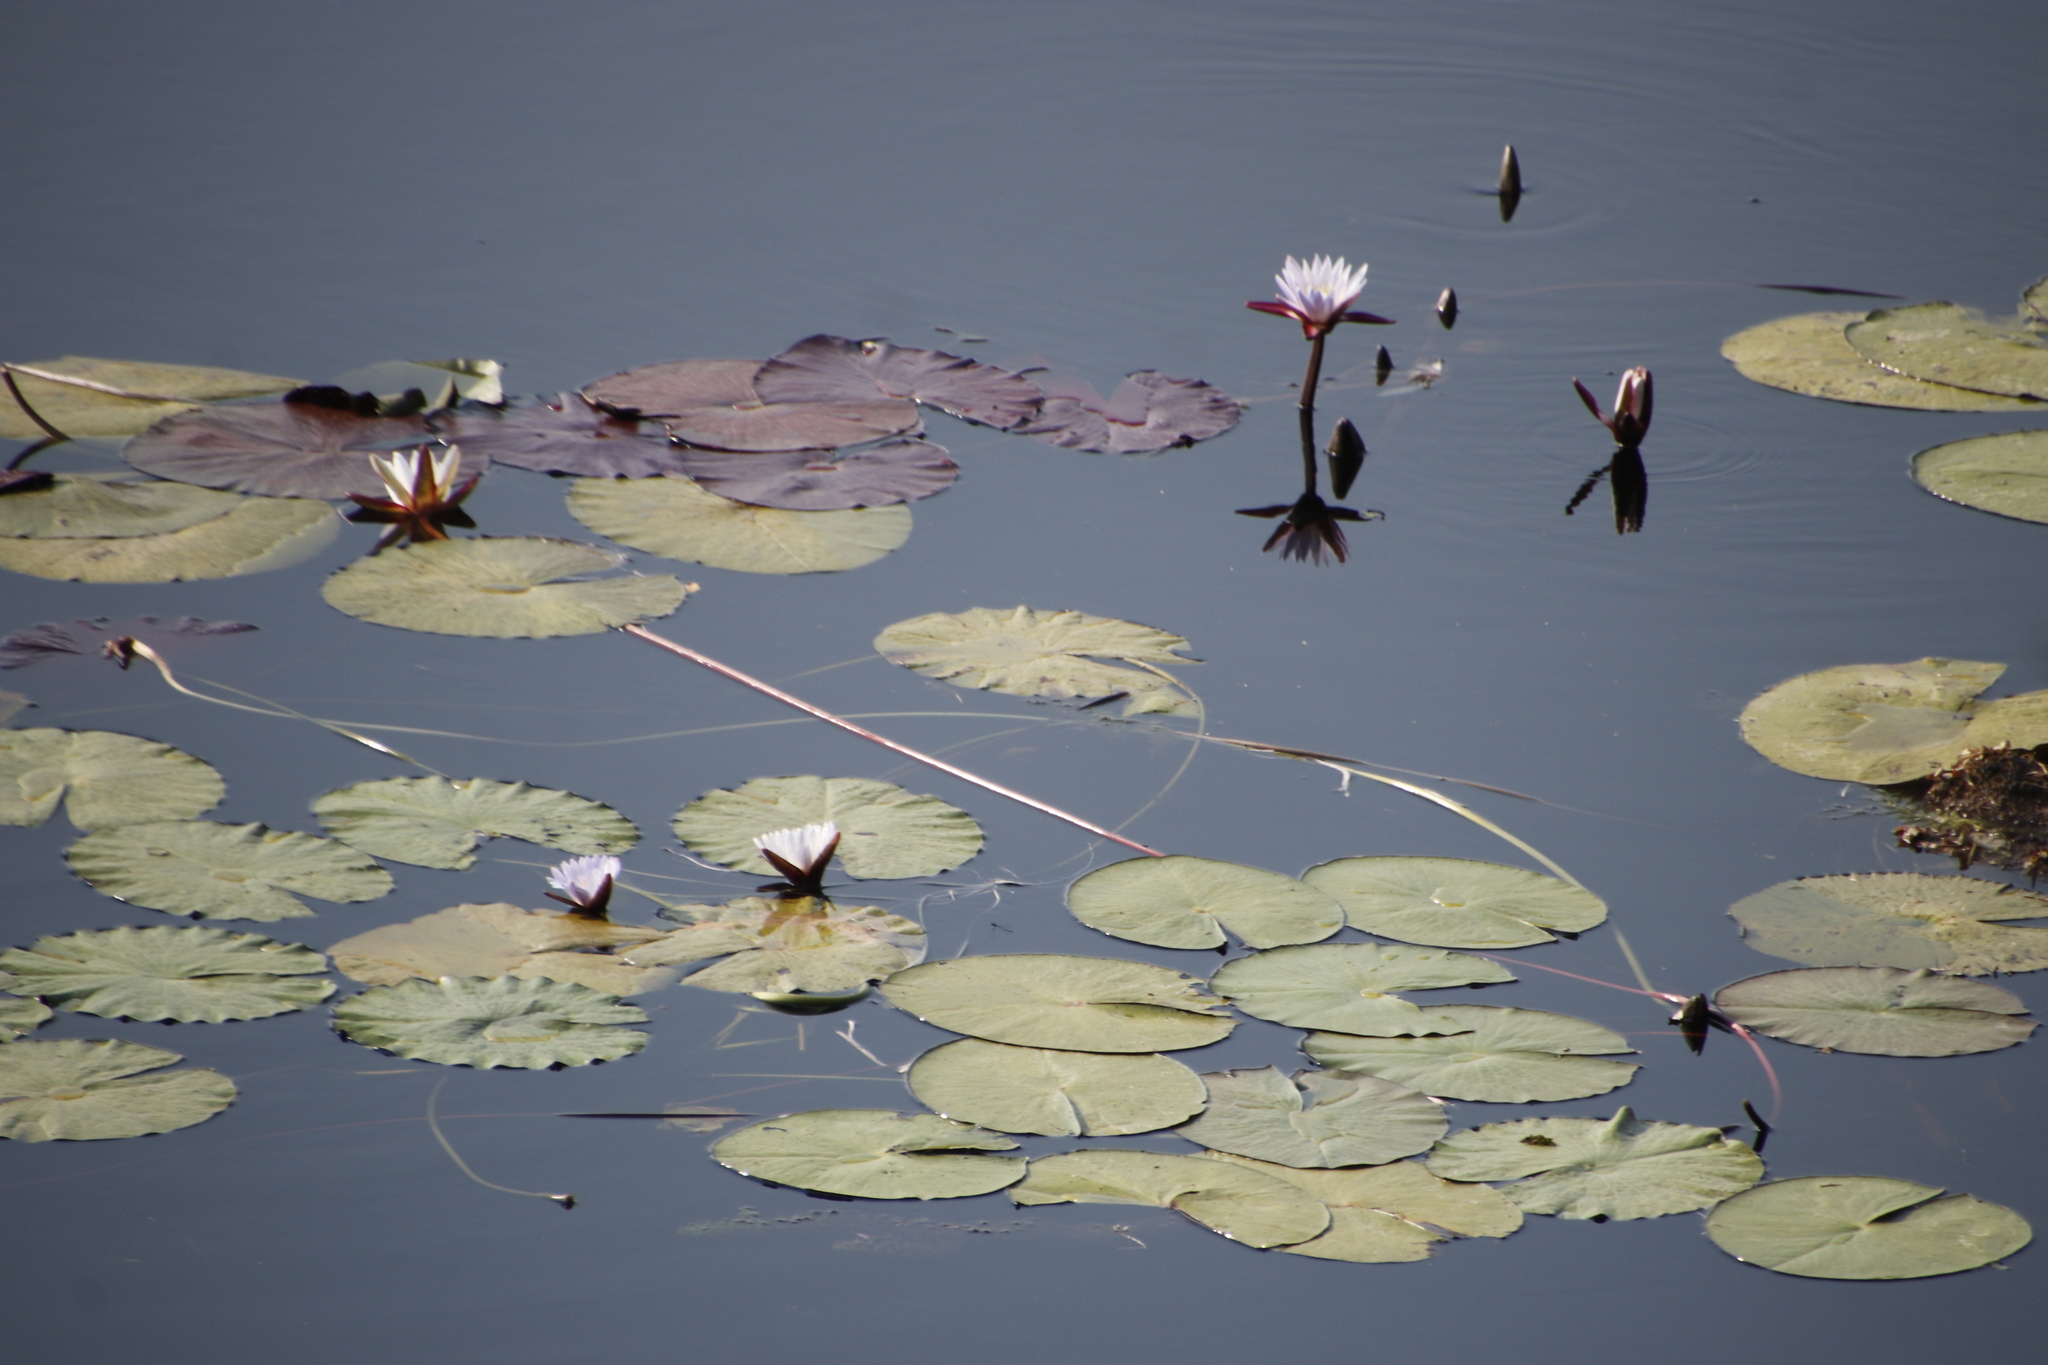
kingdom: Plantae
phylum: Tracheophyta
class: Magnoliopsida
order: Nymphaeales
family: Nymphaeaceae
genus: Nymphaea
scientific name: Nymphaea nouchali
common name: Blue lotus
